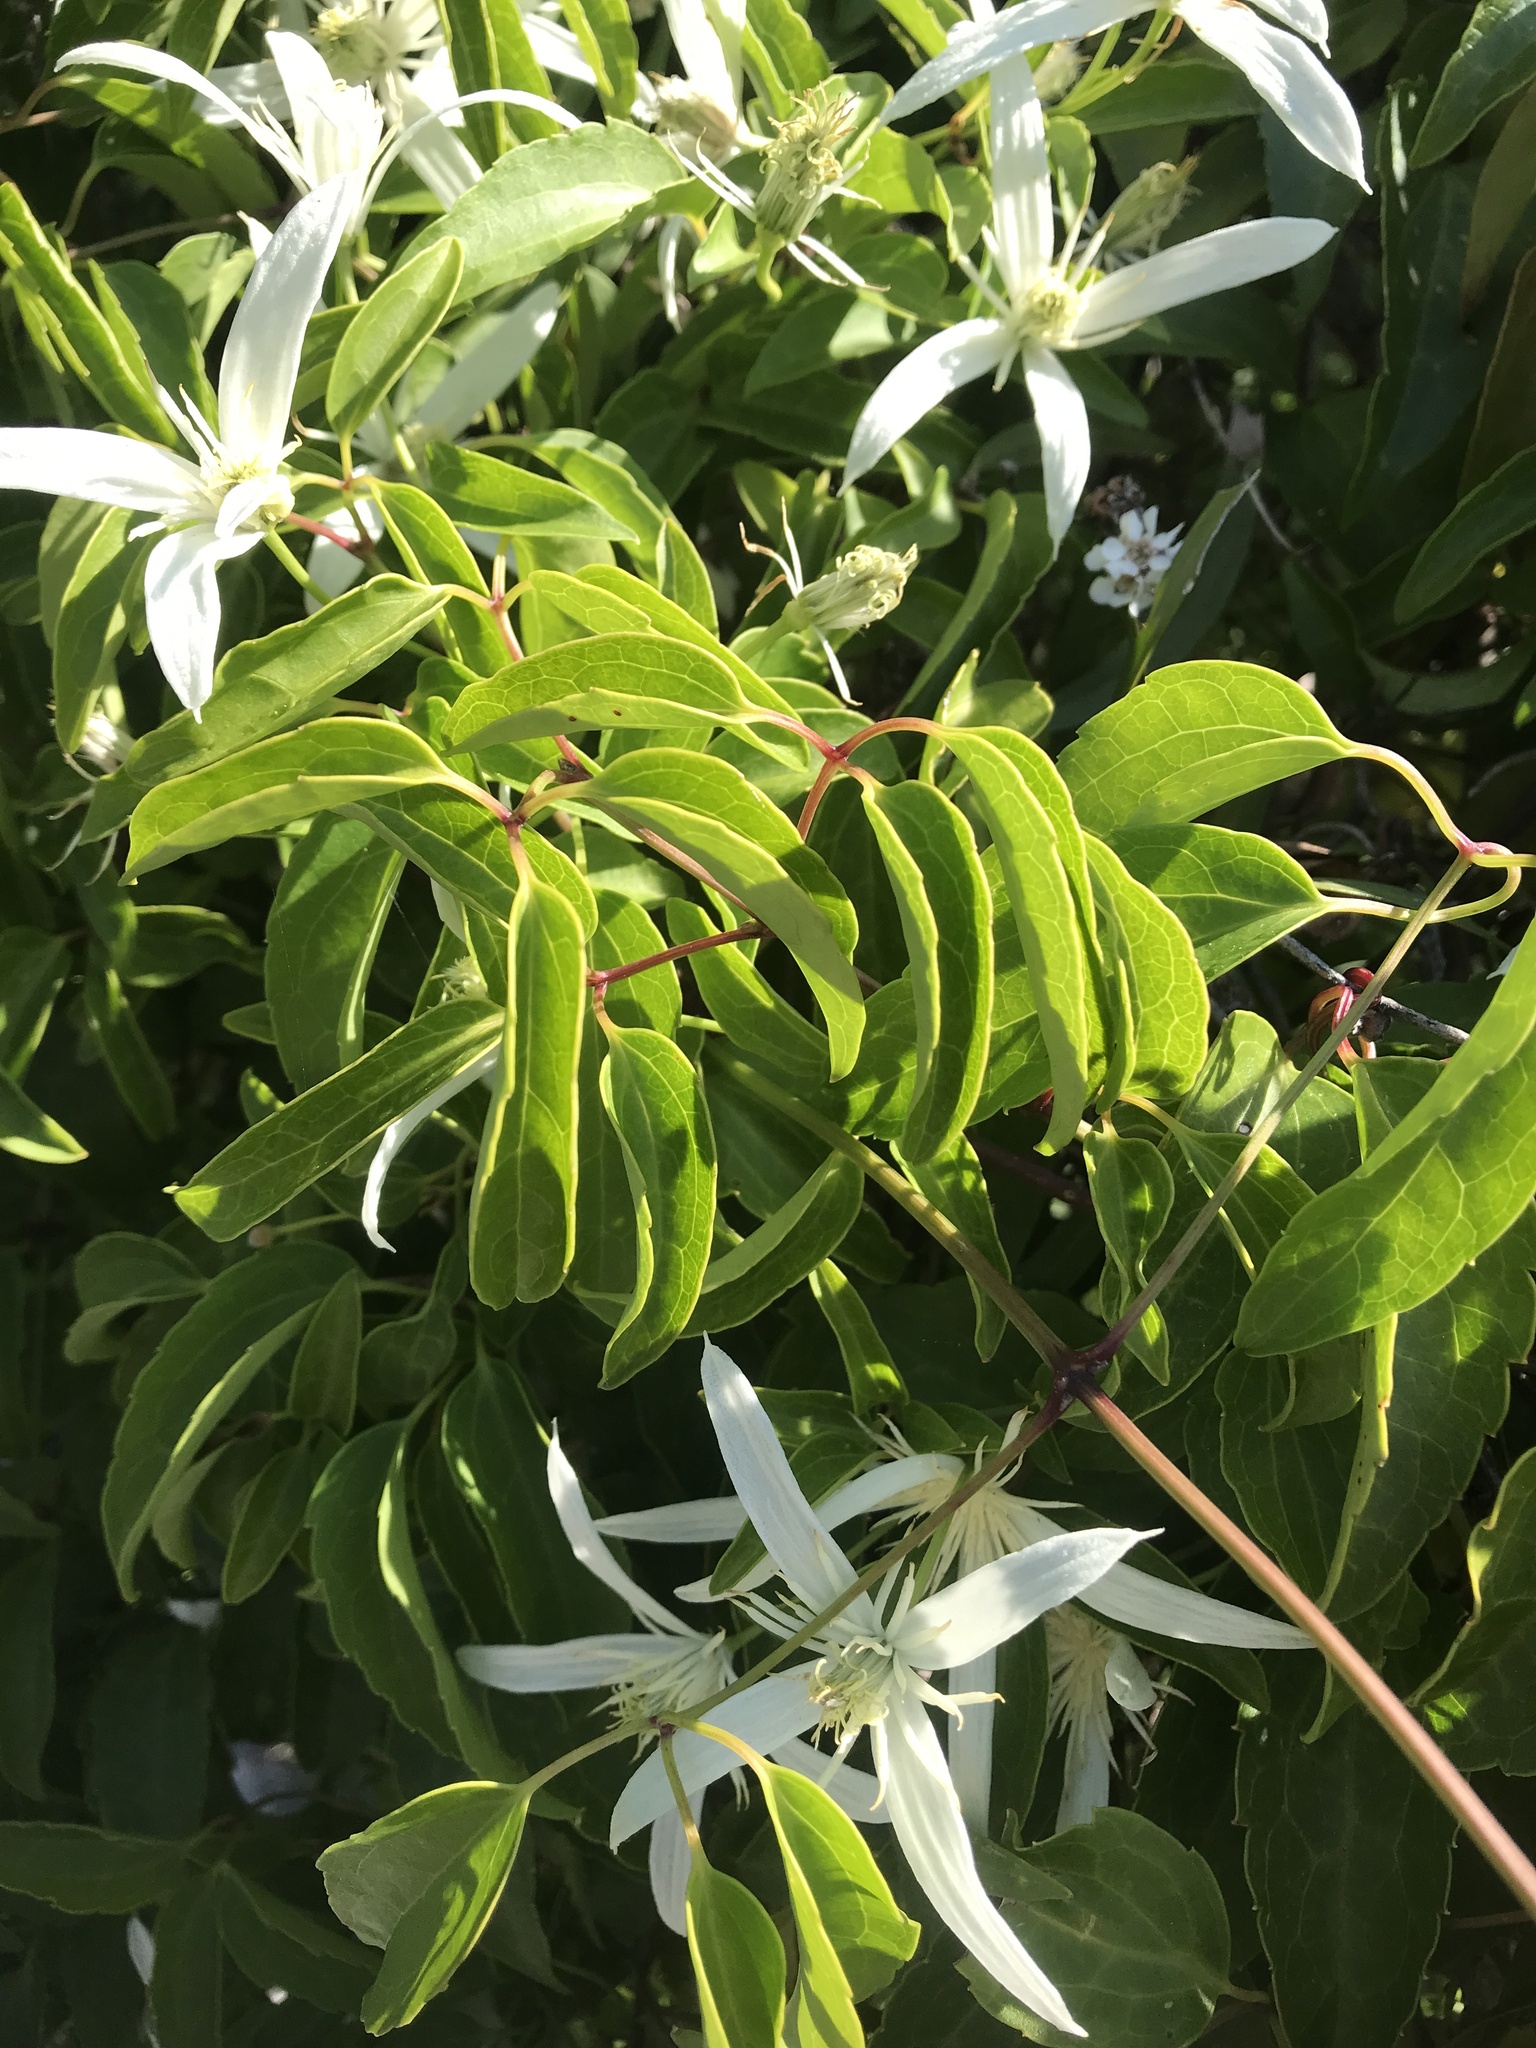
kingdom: Plantae
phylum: Tracheophyta
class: Magnoliopsida
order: Ranunculales
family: Ranunculaceae
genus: Clematis
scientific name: Clematis pubescens
